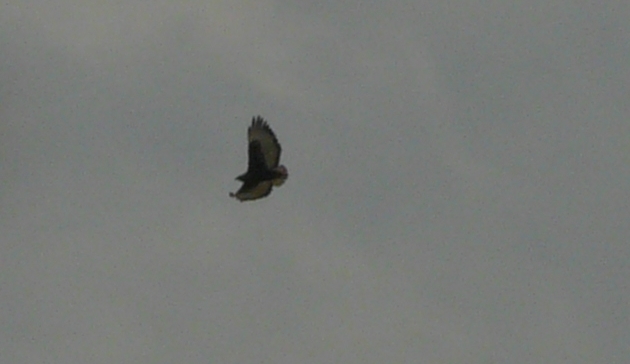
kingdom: Animalia
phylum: Chordata
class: Aves
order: Accipitriformes
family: Accipitridae
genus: Buteo
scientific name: Buteo augur
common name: Augur buzzard
